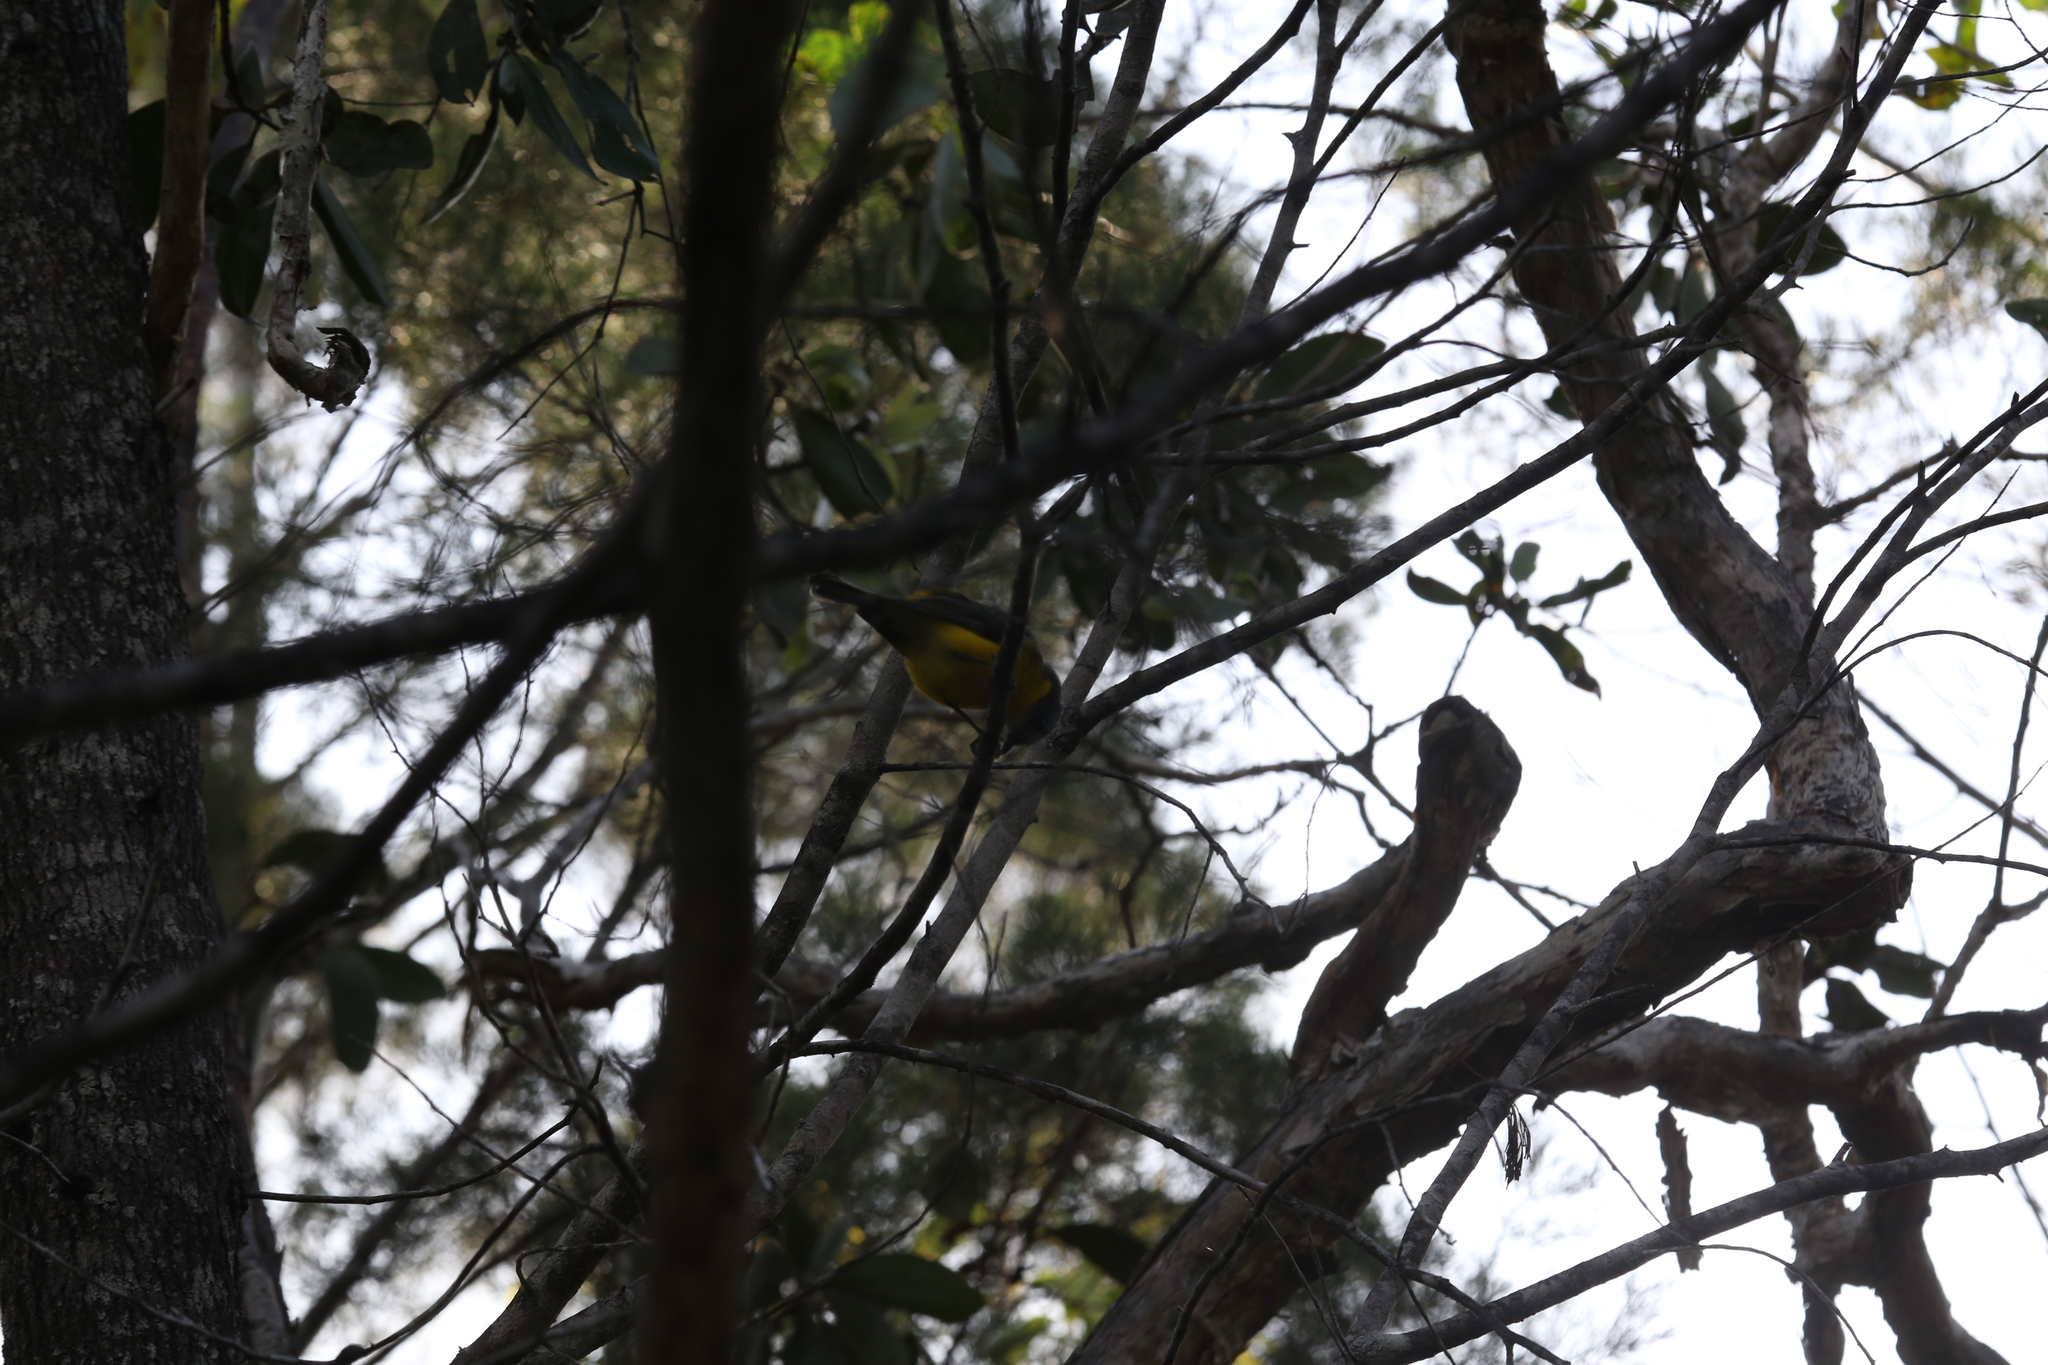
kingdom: Animalia
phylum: Chordata
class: Aves
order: Passeriformes
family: Petroicidae
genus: Eopsaltria
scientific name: Eopsaltria australis
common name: Eastern yellow robin
